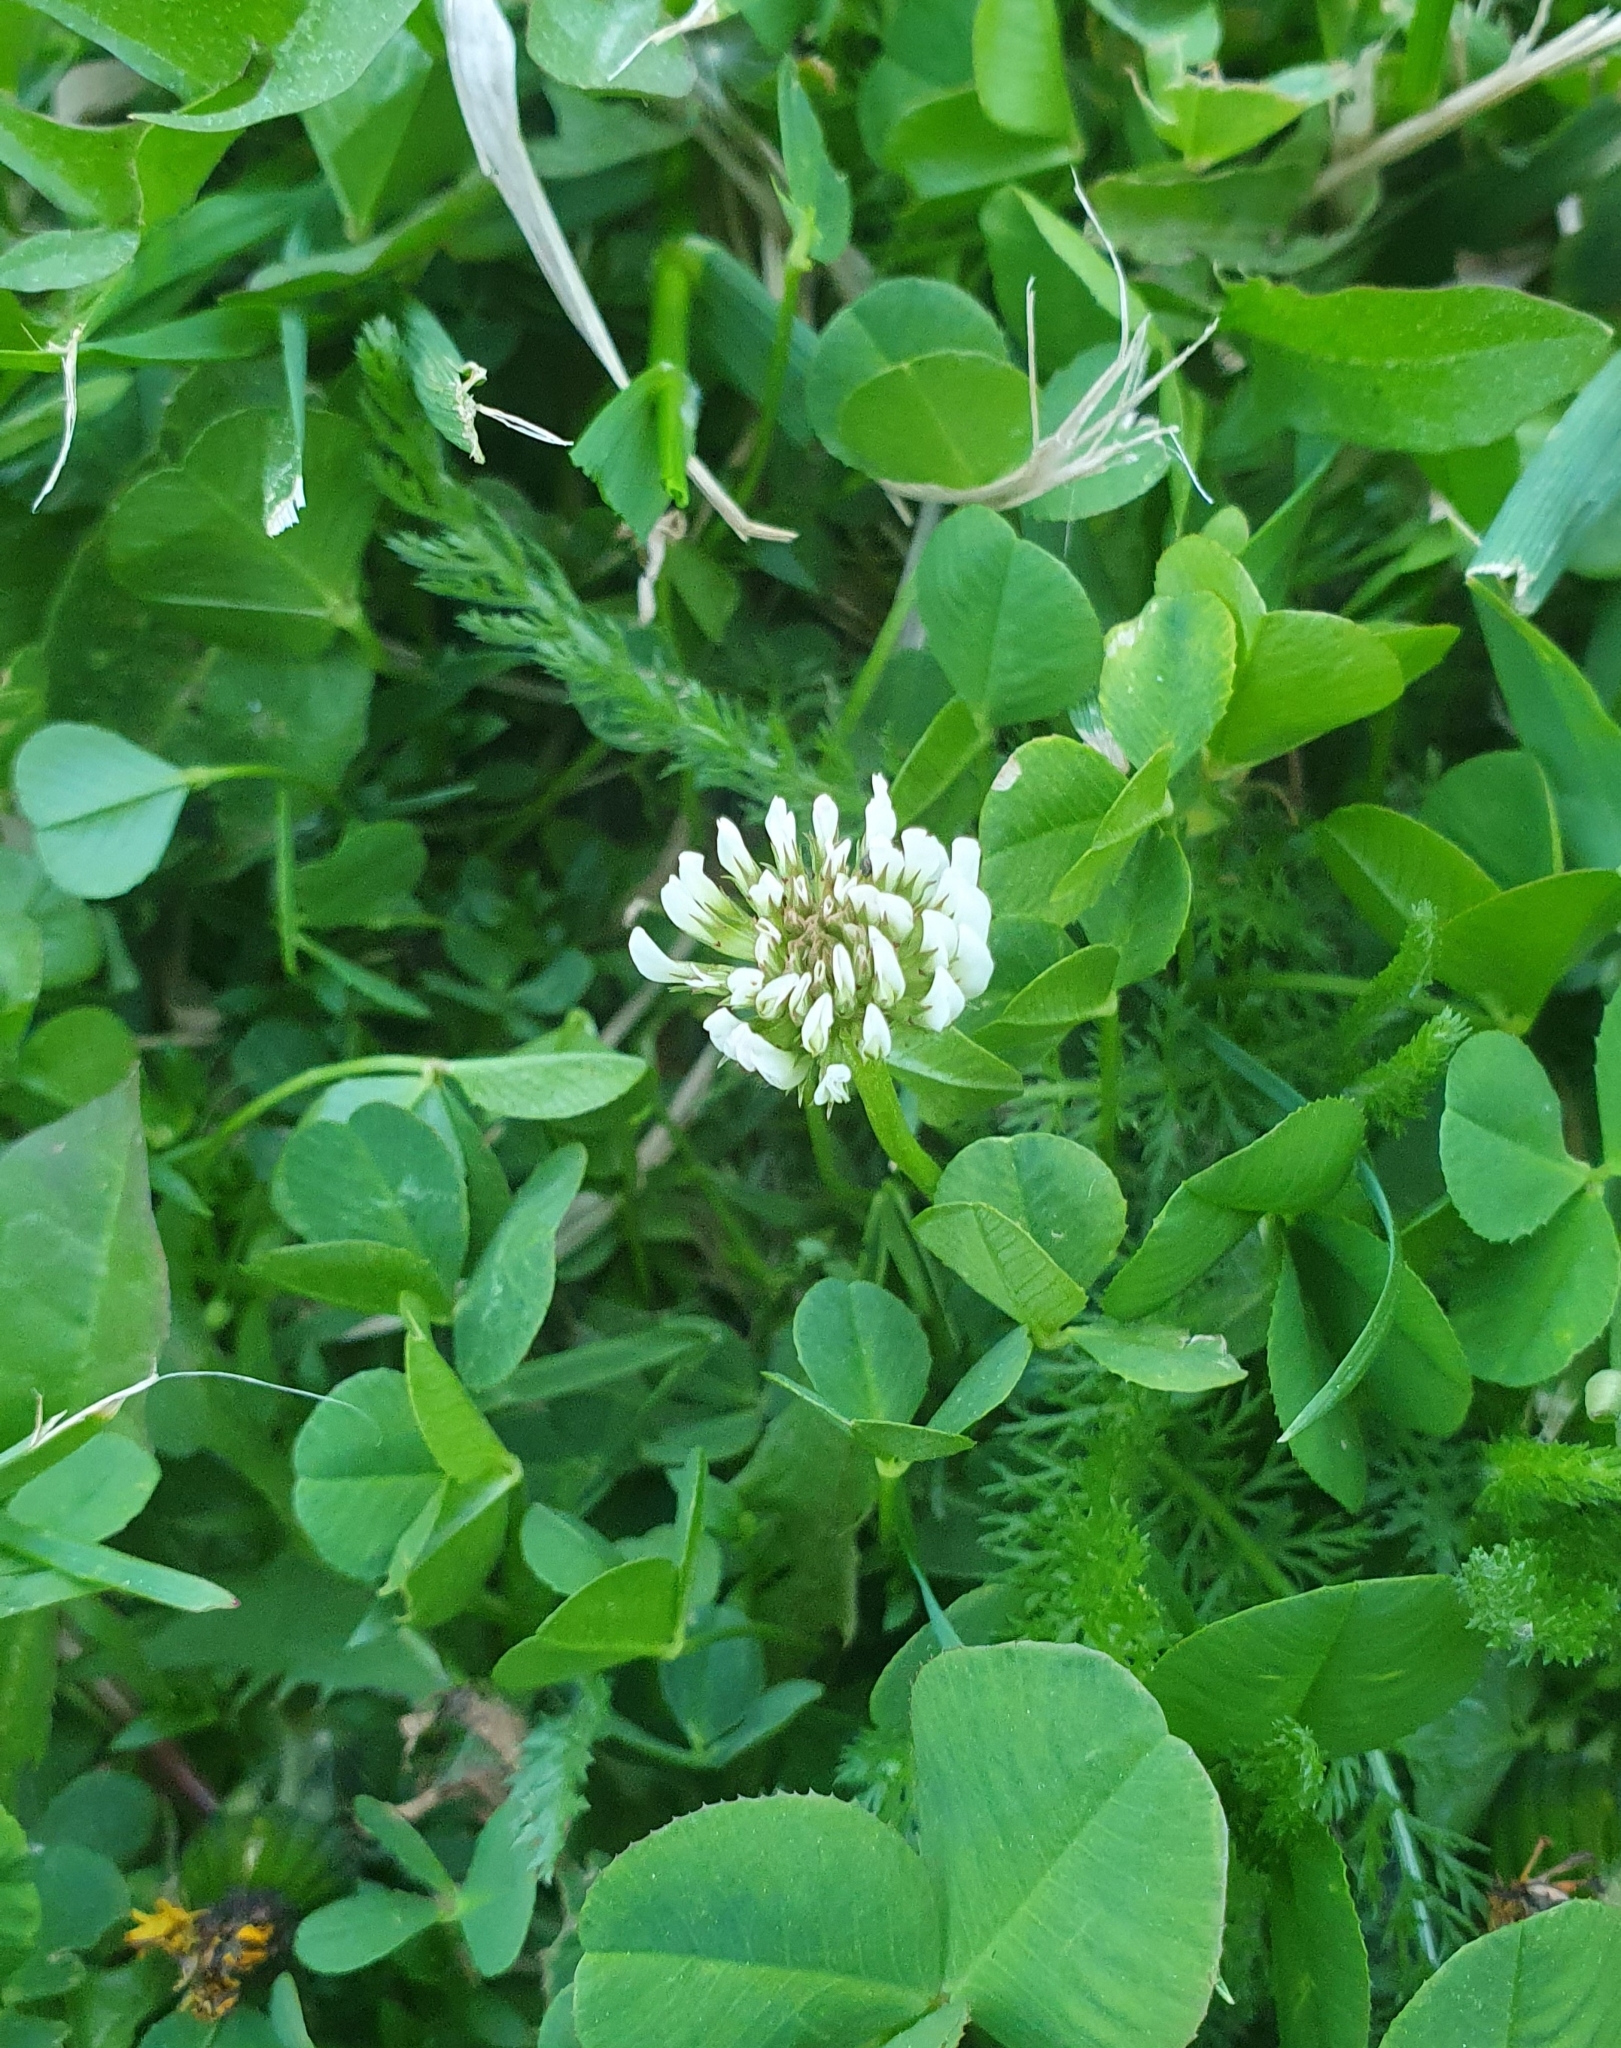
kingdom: Plantae
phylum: Tracheophyta
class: Magnoliopsida
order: Fabales
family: Fabaceae
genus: Trifolium
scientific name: Trifolium repens
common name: White clover
